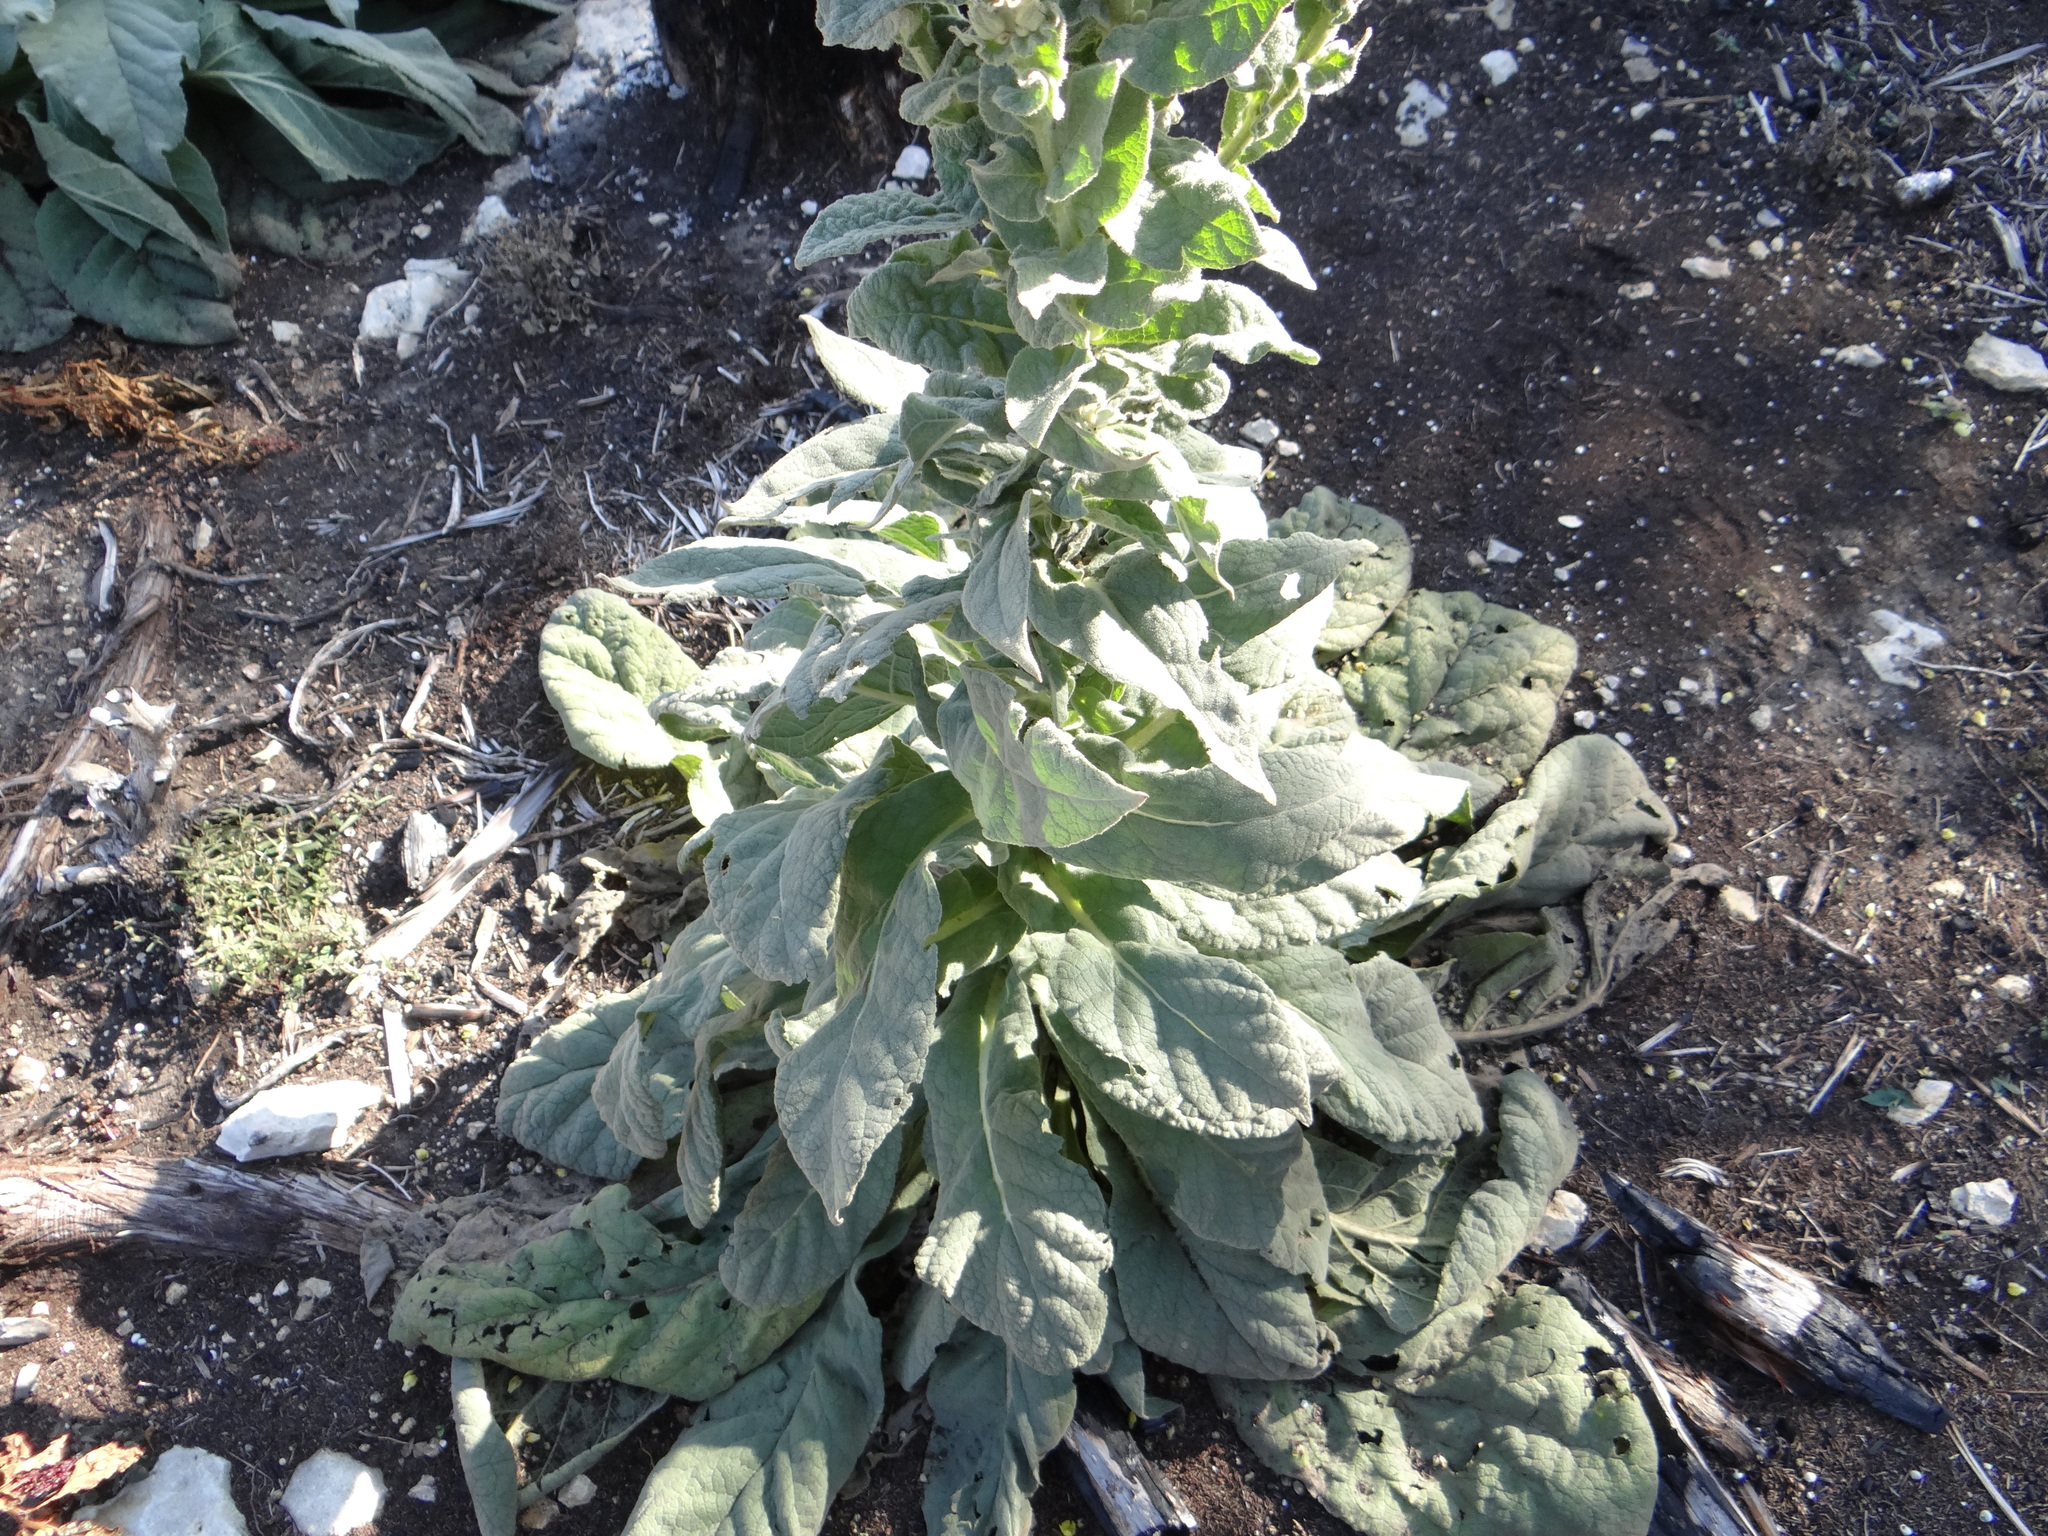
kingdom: Plantae
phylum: Tracheophyta
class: Magnoliopsida
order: Lamiales
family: Scrophulariaceae
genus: Verbascum
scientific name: Verbascum thapsus
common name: Common mullein
